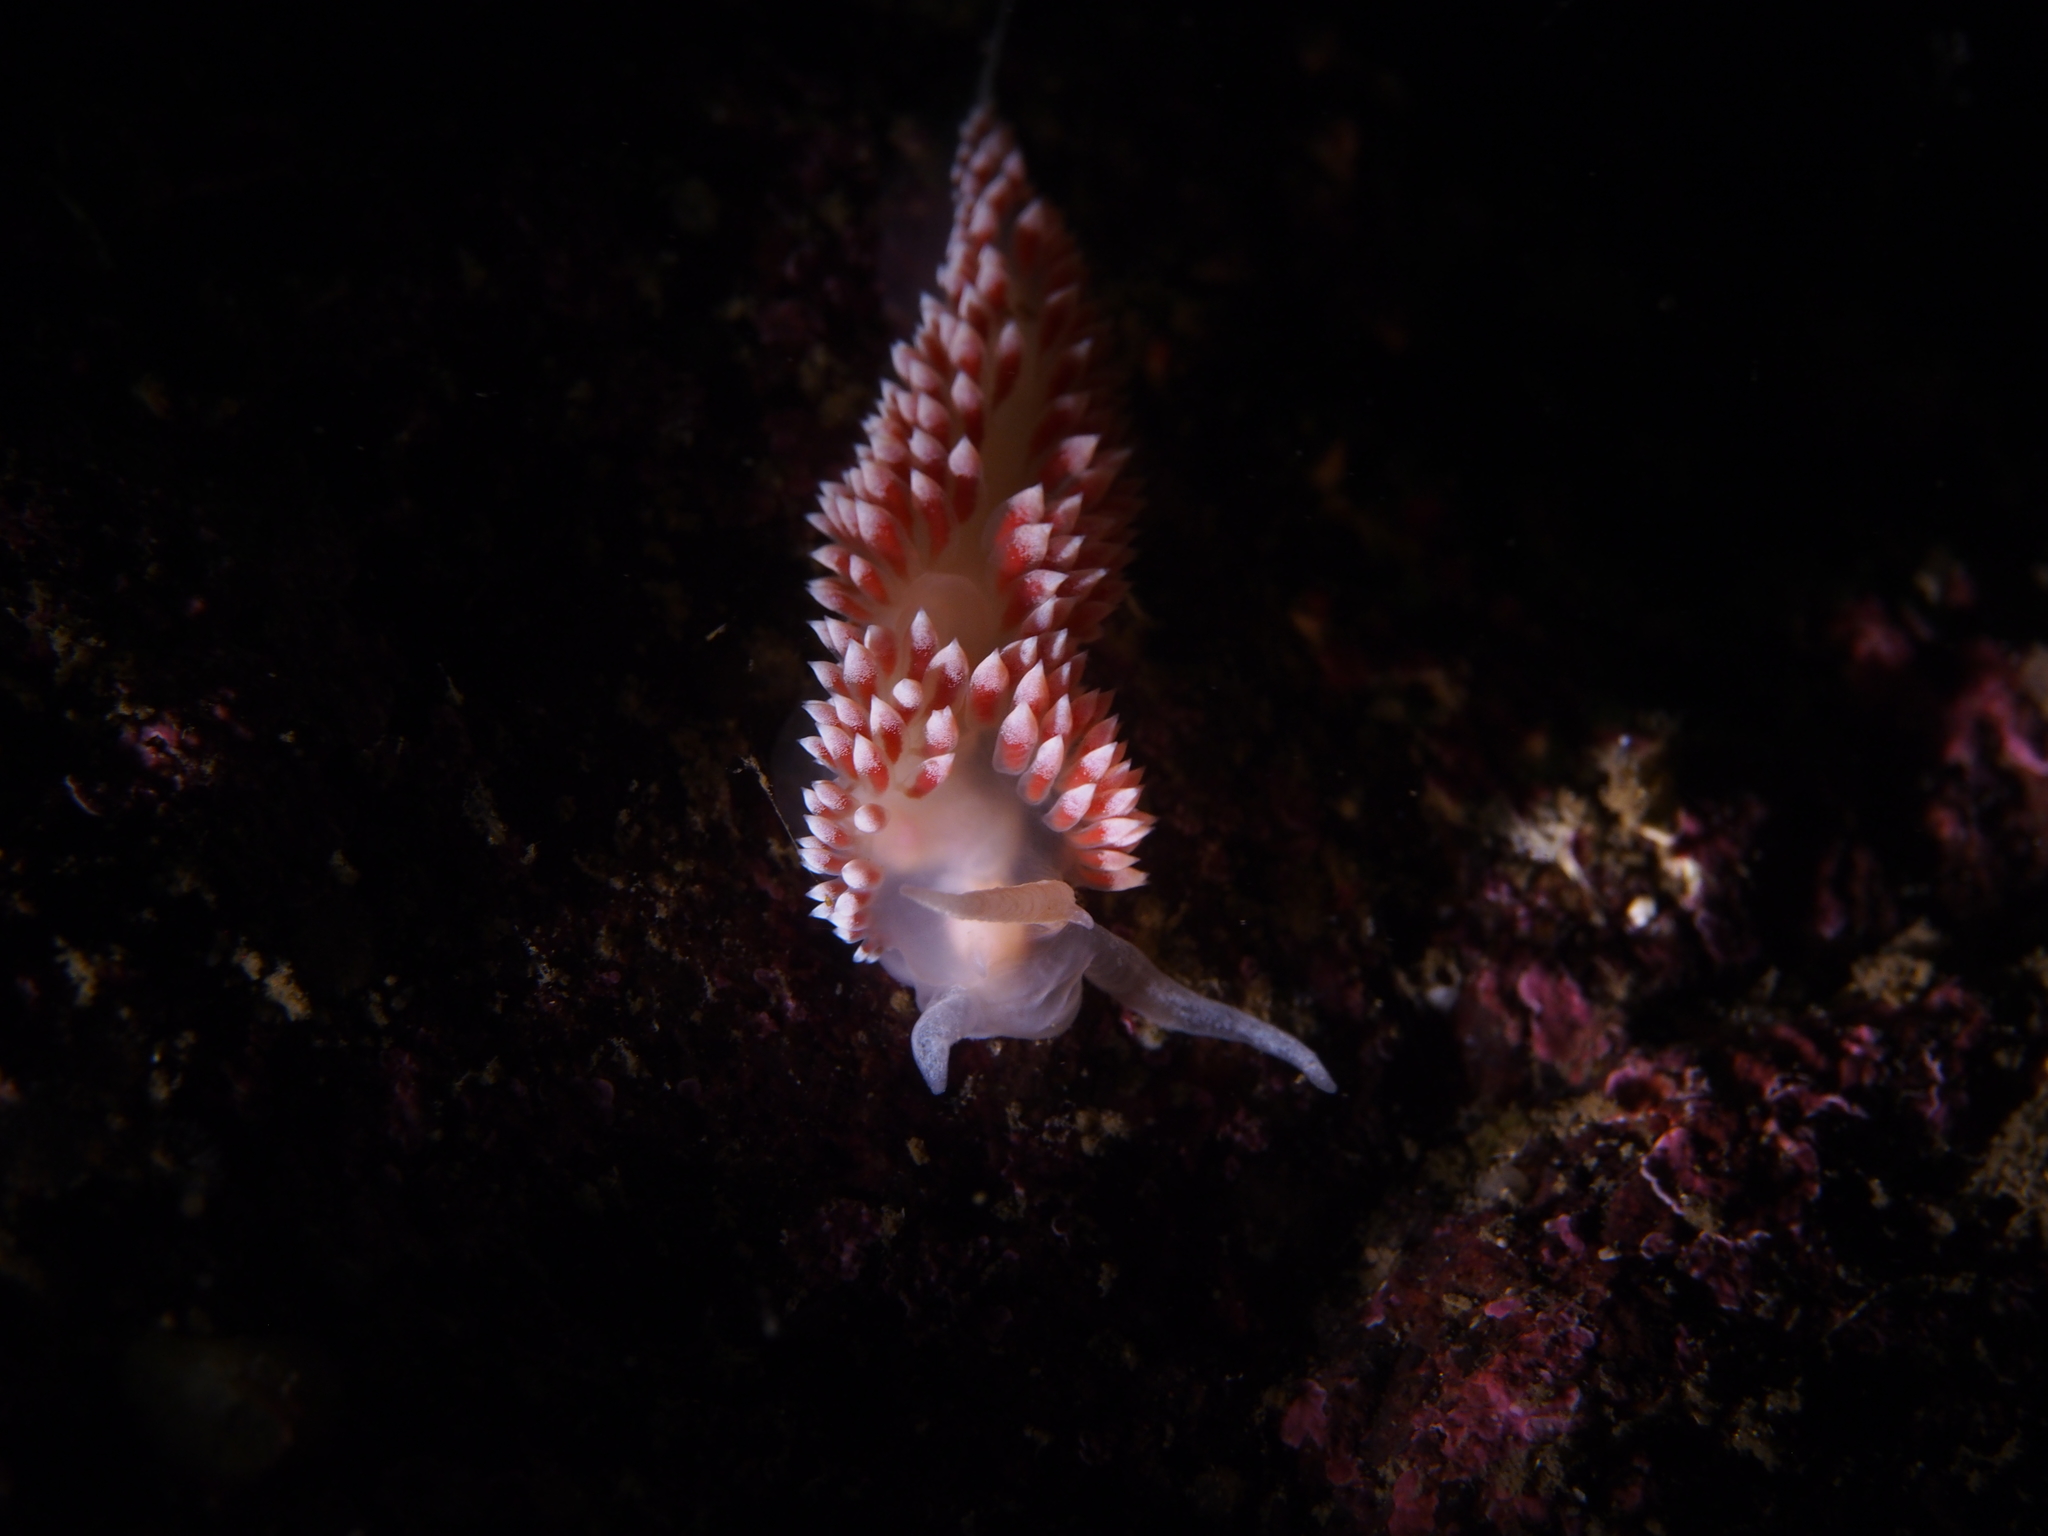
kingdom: Animalia
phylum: Mollusca
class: Gastropoda
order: Nudibranchia
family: Coryphellidae
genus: Coryphella
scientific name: Coryphella verrucosa
